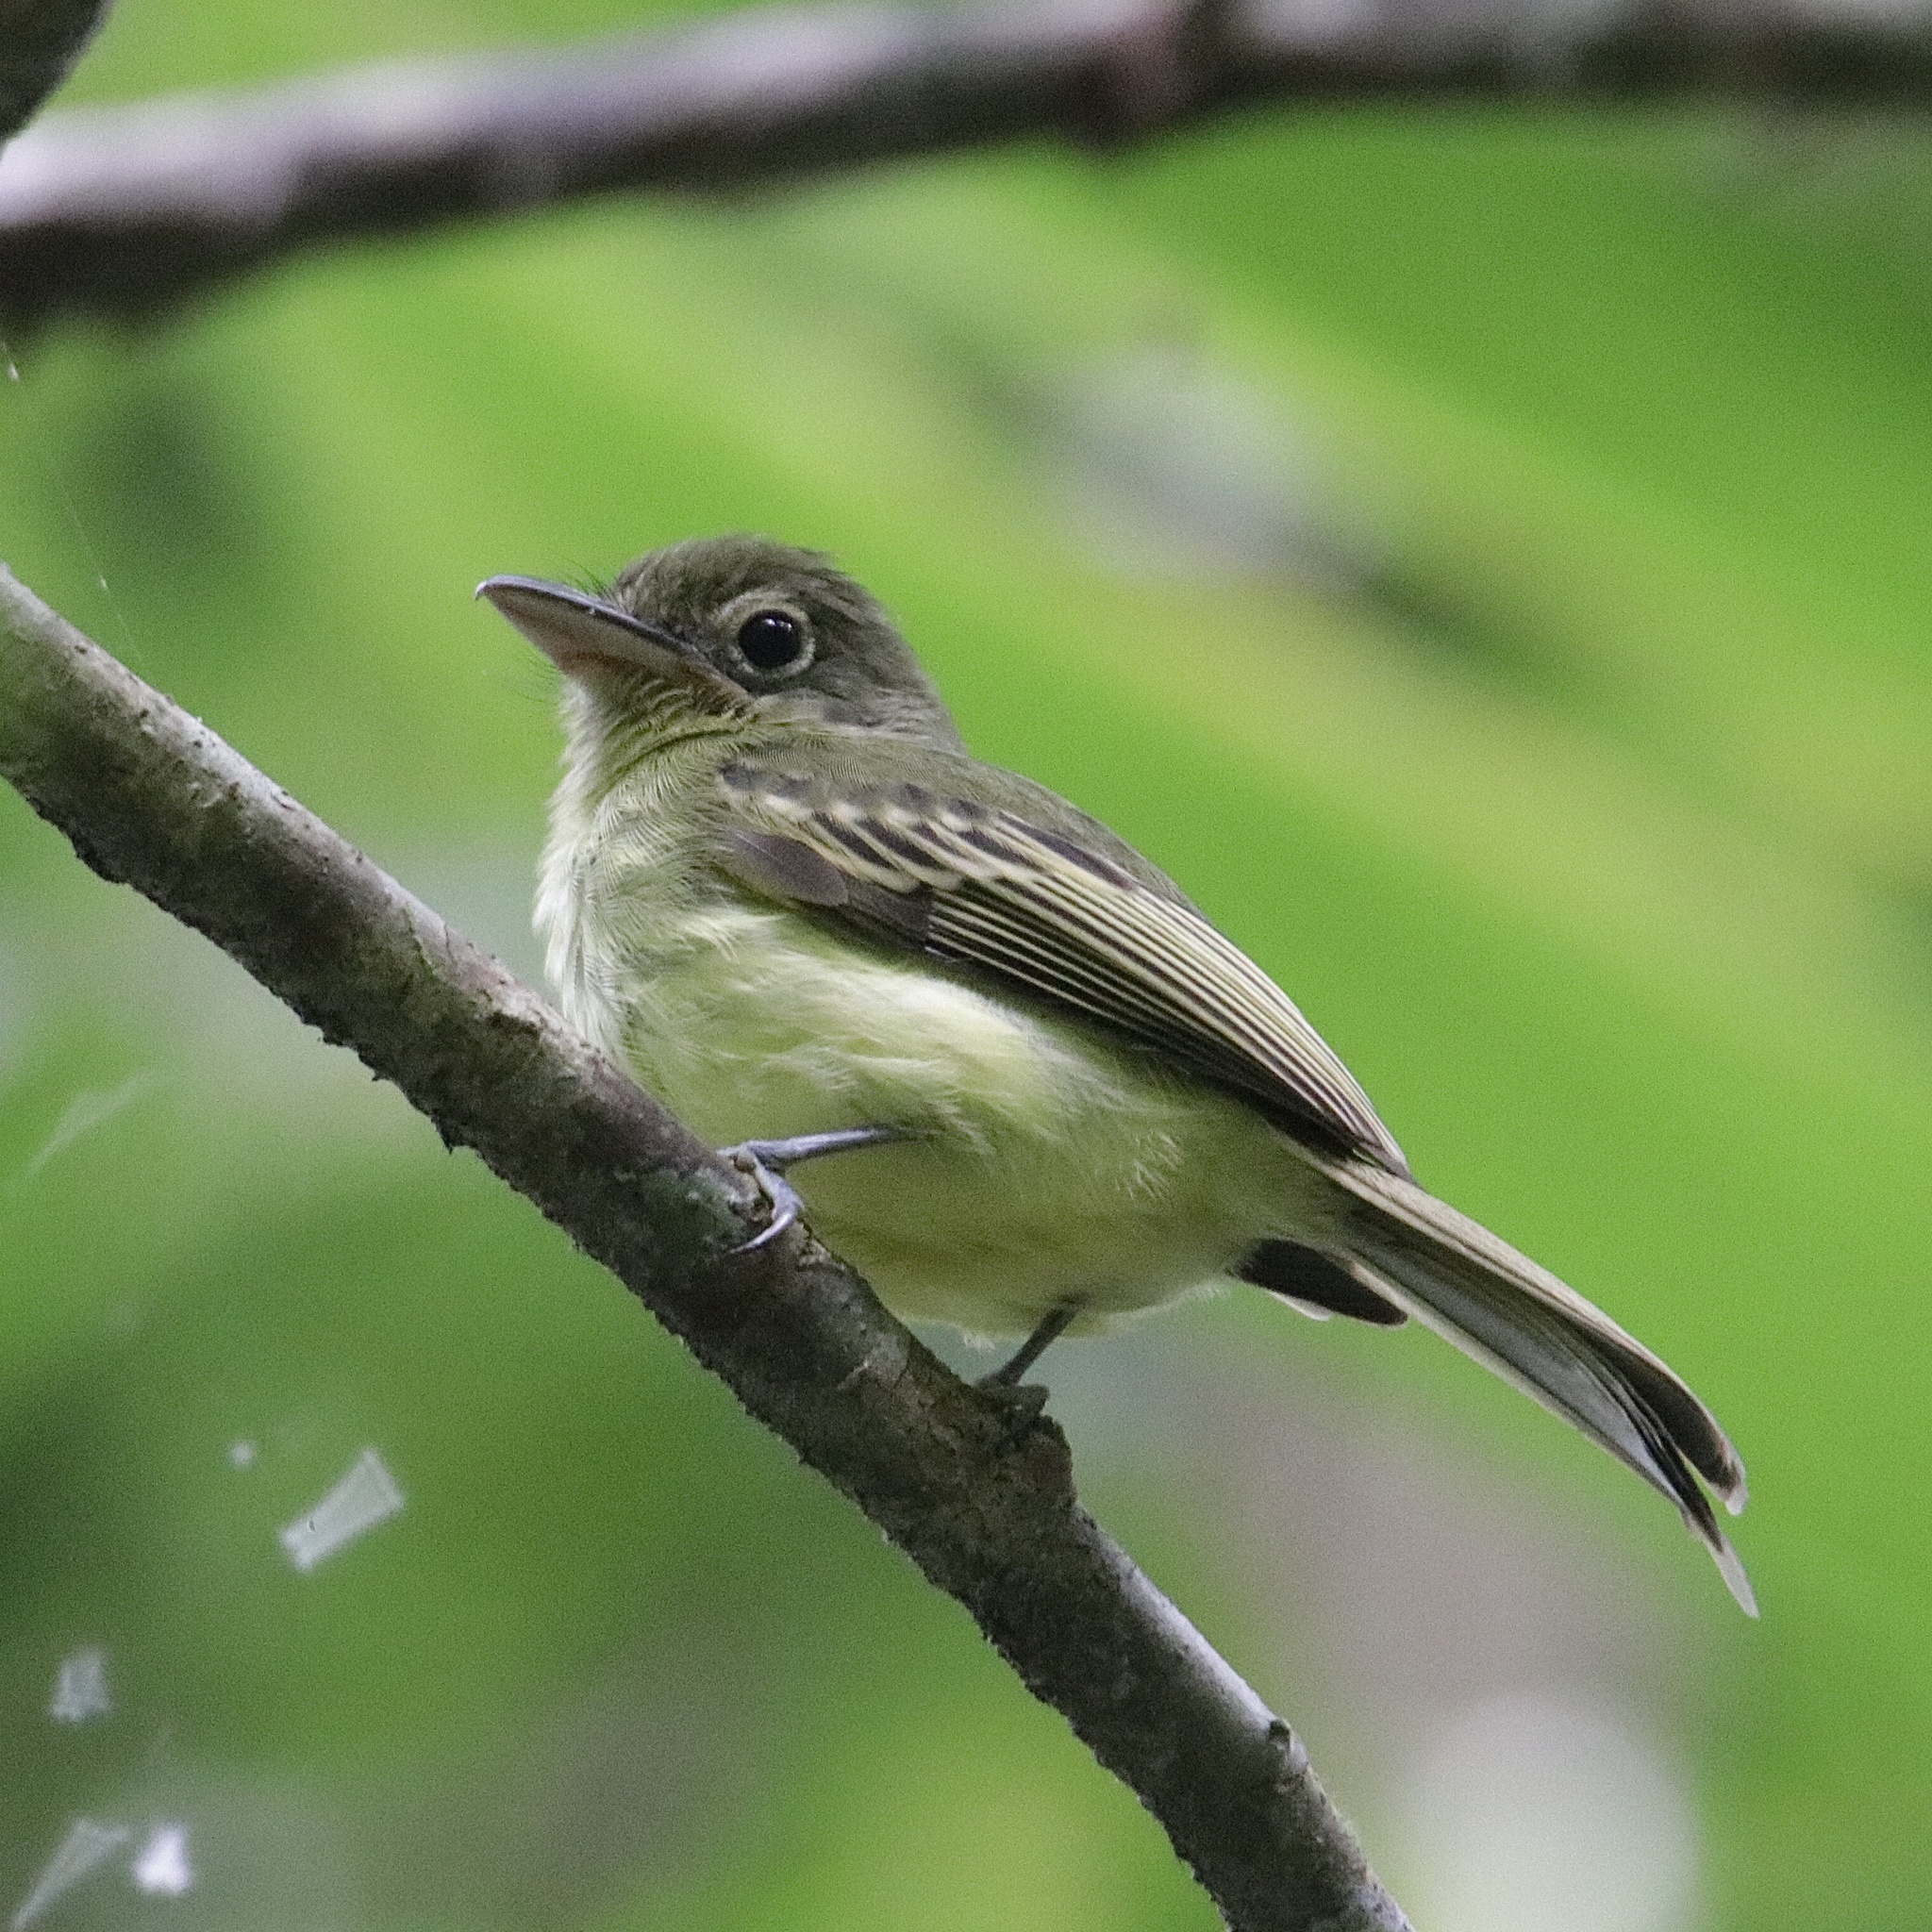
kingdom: Animalia
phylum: Chordata
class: Aves
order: Passeriformes
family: Tyrannidae
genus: Tolmomyias
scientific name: Tolmomyias sulphurescens
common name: Yellow-olive flycatcher
